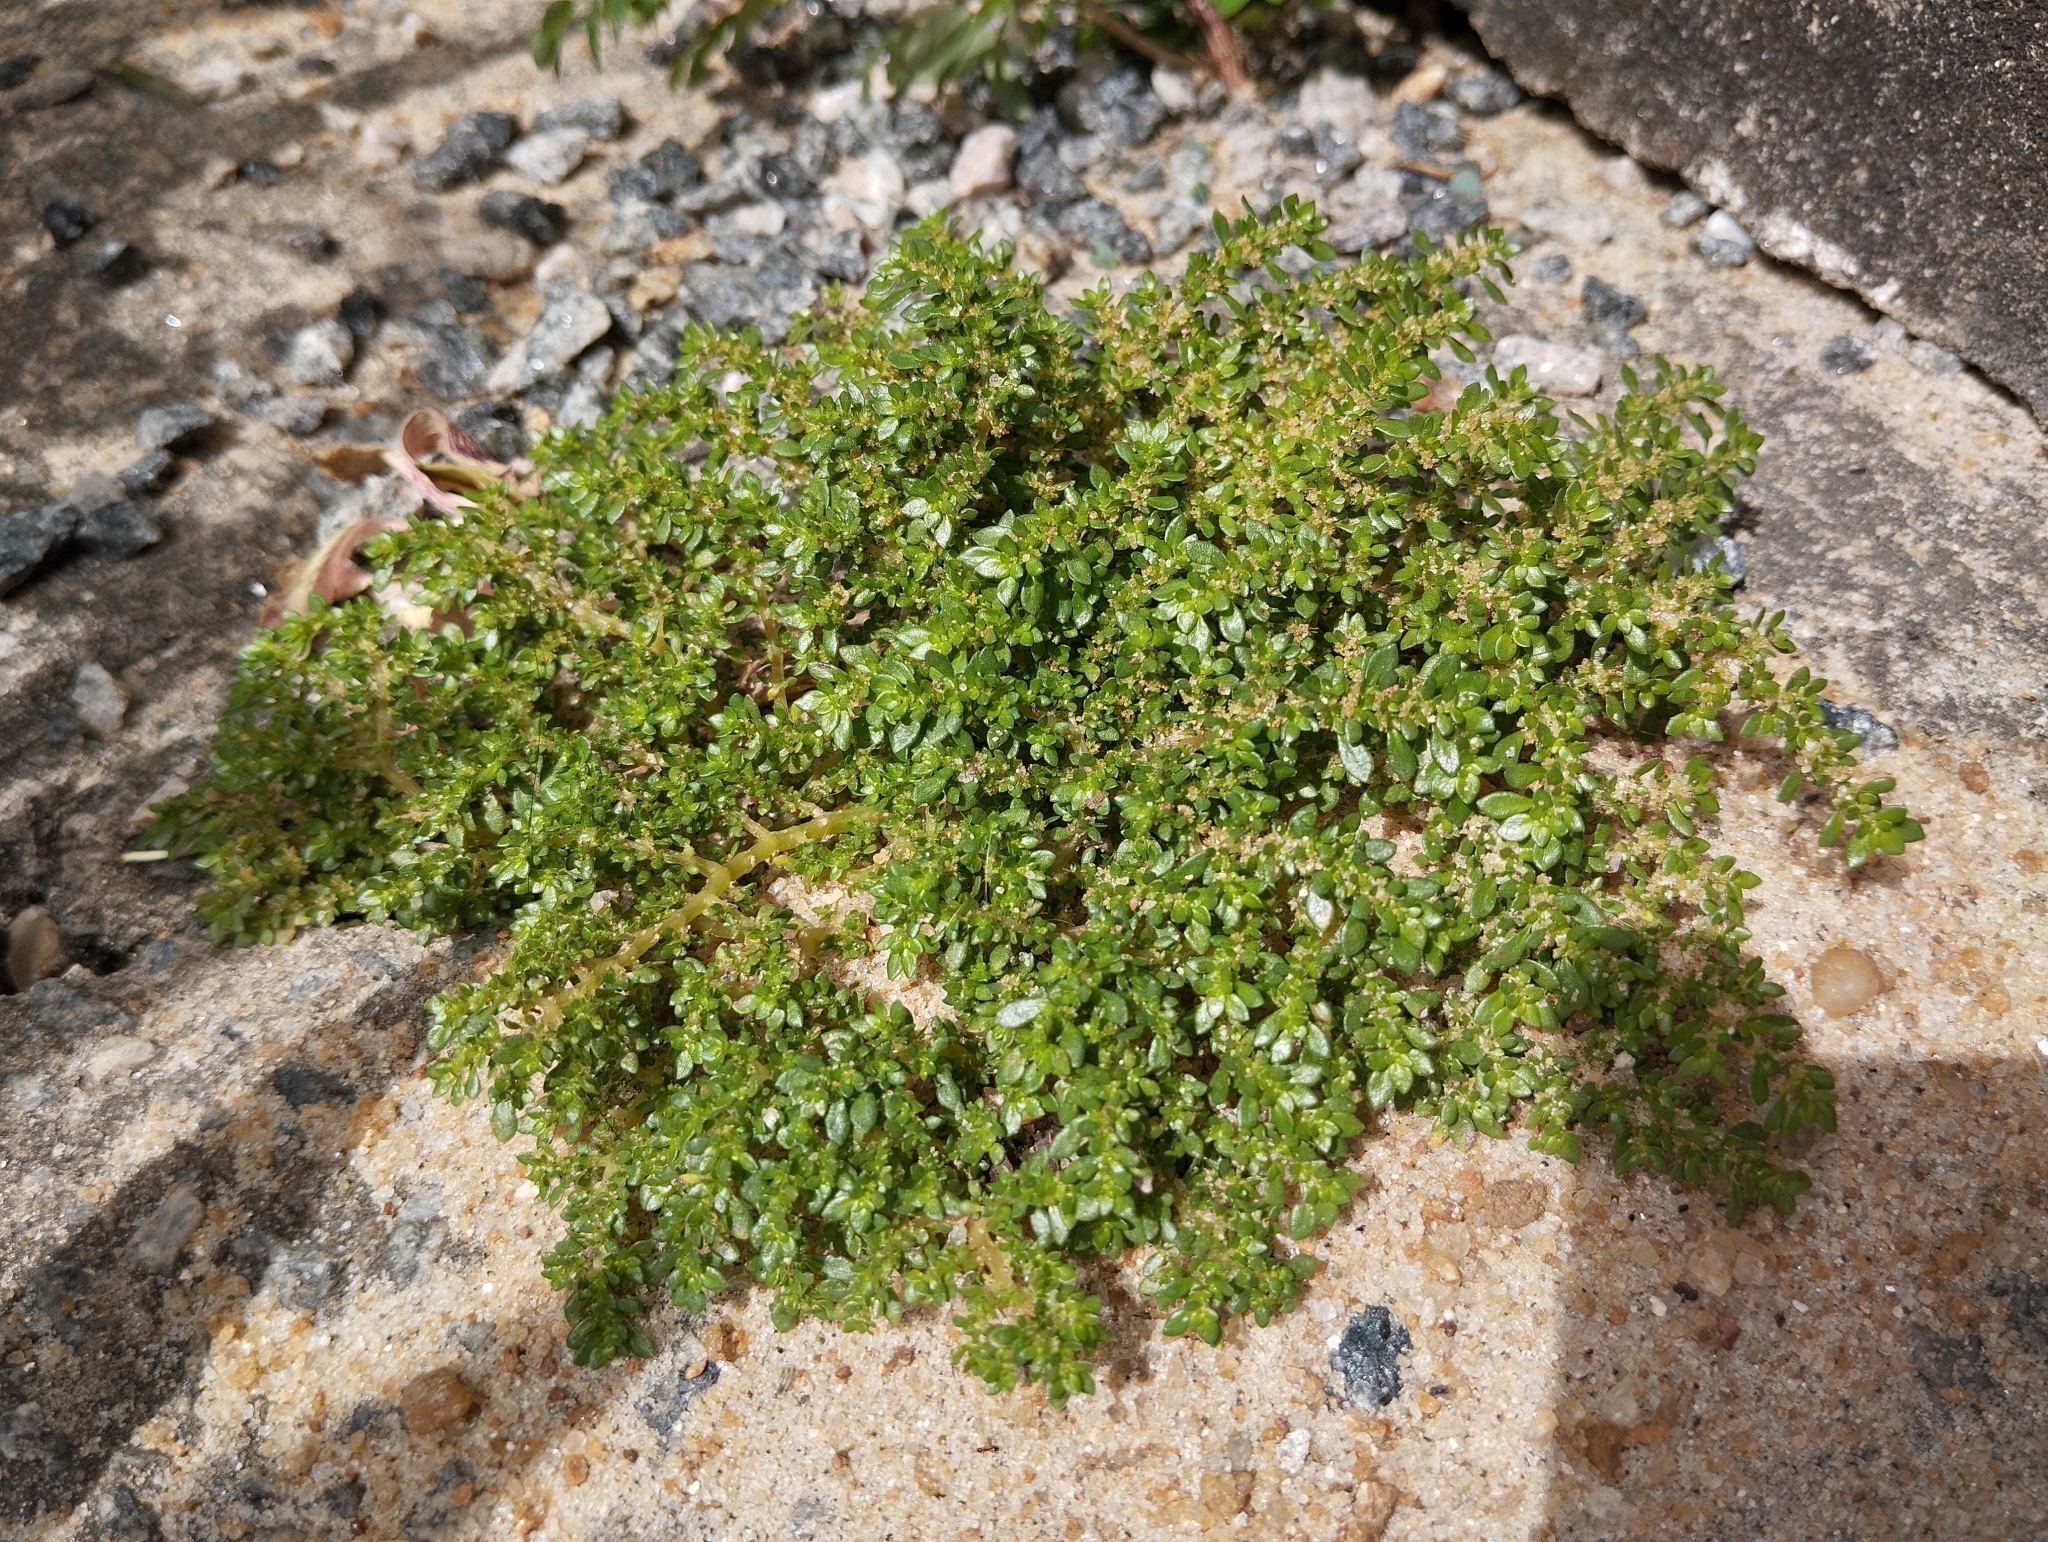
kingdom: Plantae
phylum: Tracheophyta
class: Magnoliopsida
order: Rosales
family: Urticaceae
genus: Pilea
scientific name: Pilea microphylla
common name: Artillery-plant
